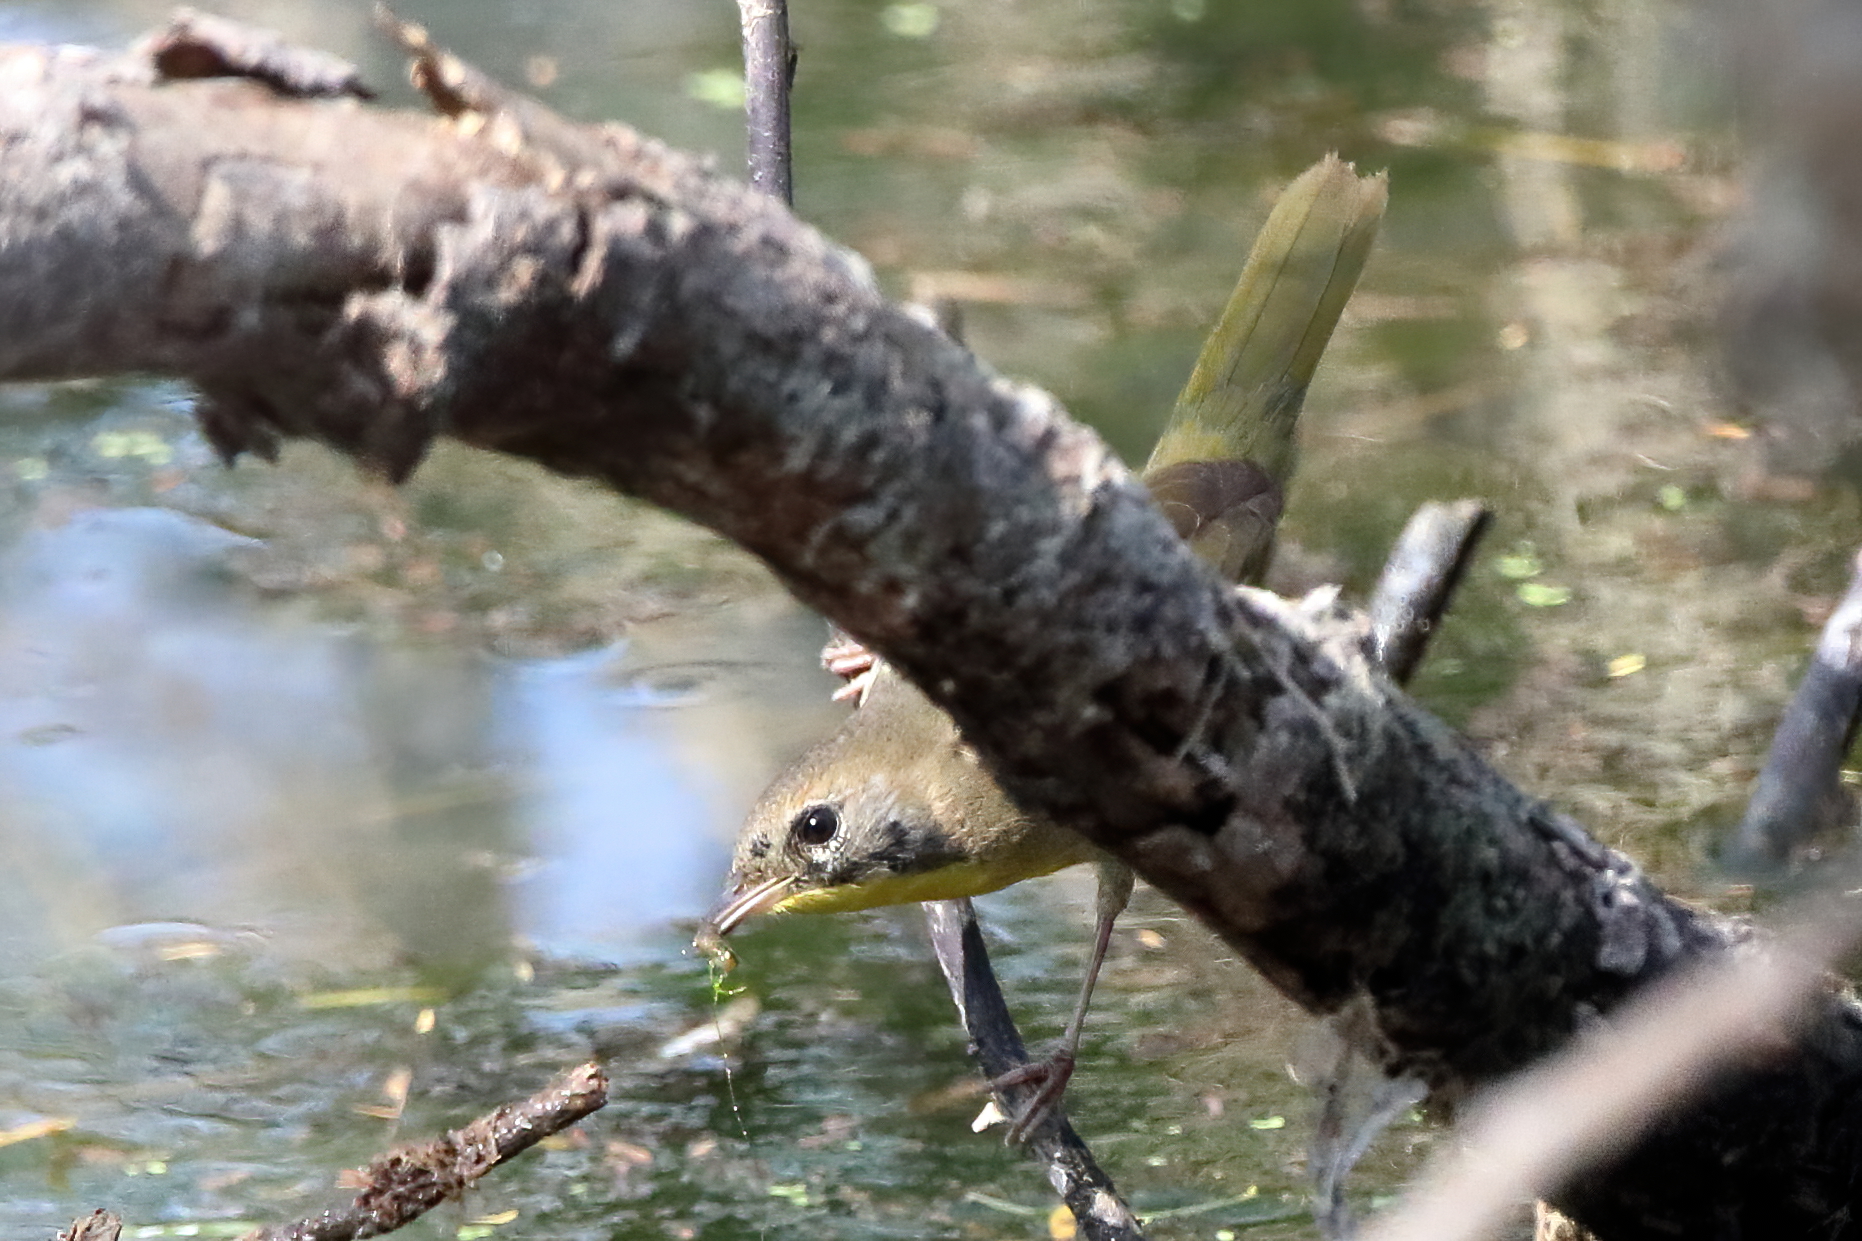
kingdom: Animalia
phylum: Chordata
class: Aves
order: Passeriformes
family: Parulidae
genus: Geothlypis
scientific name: Geothlypis trichas
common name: Common yellowthroat
